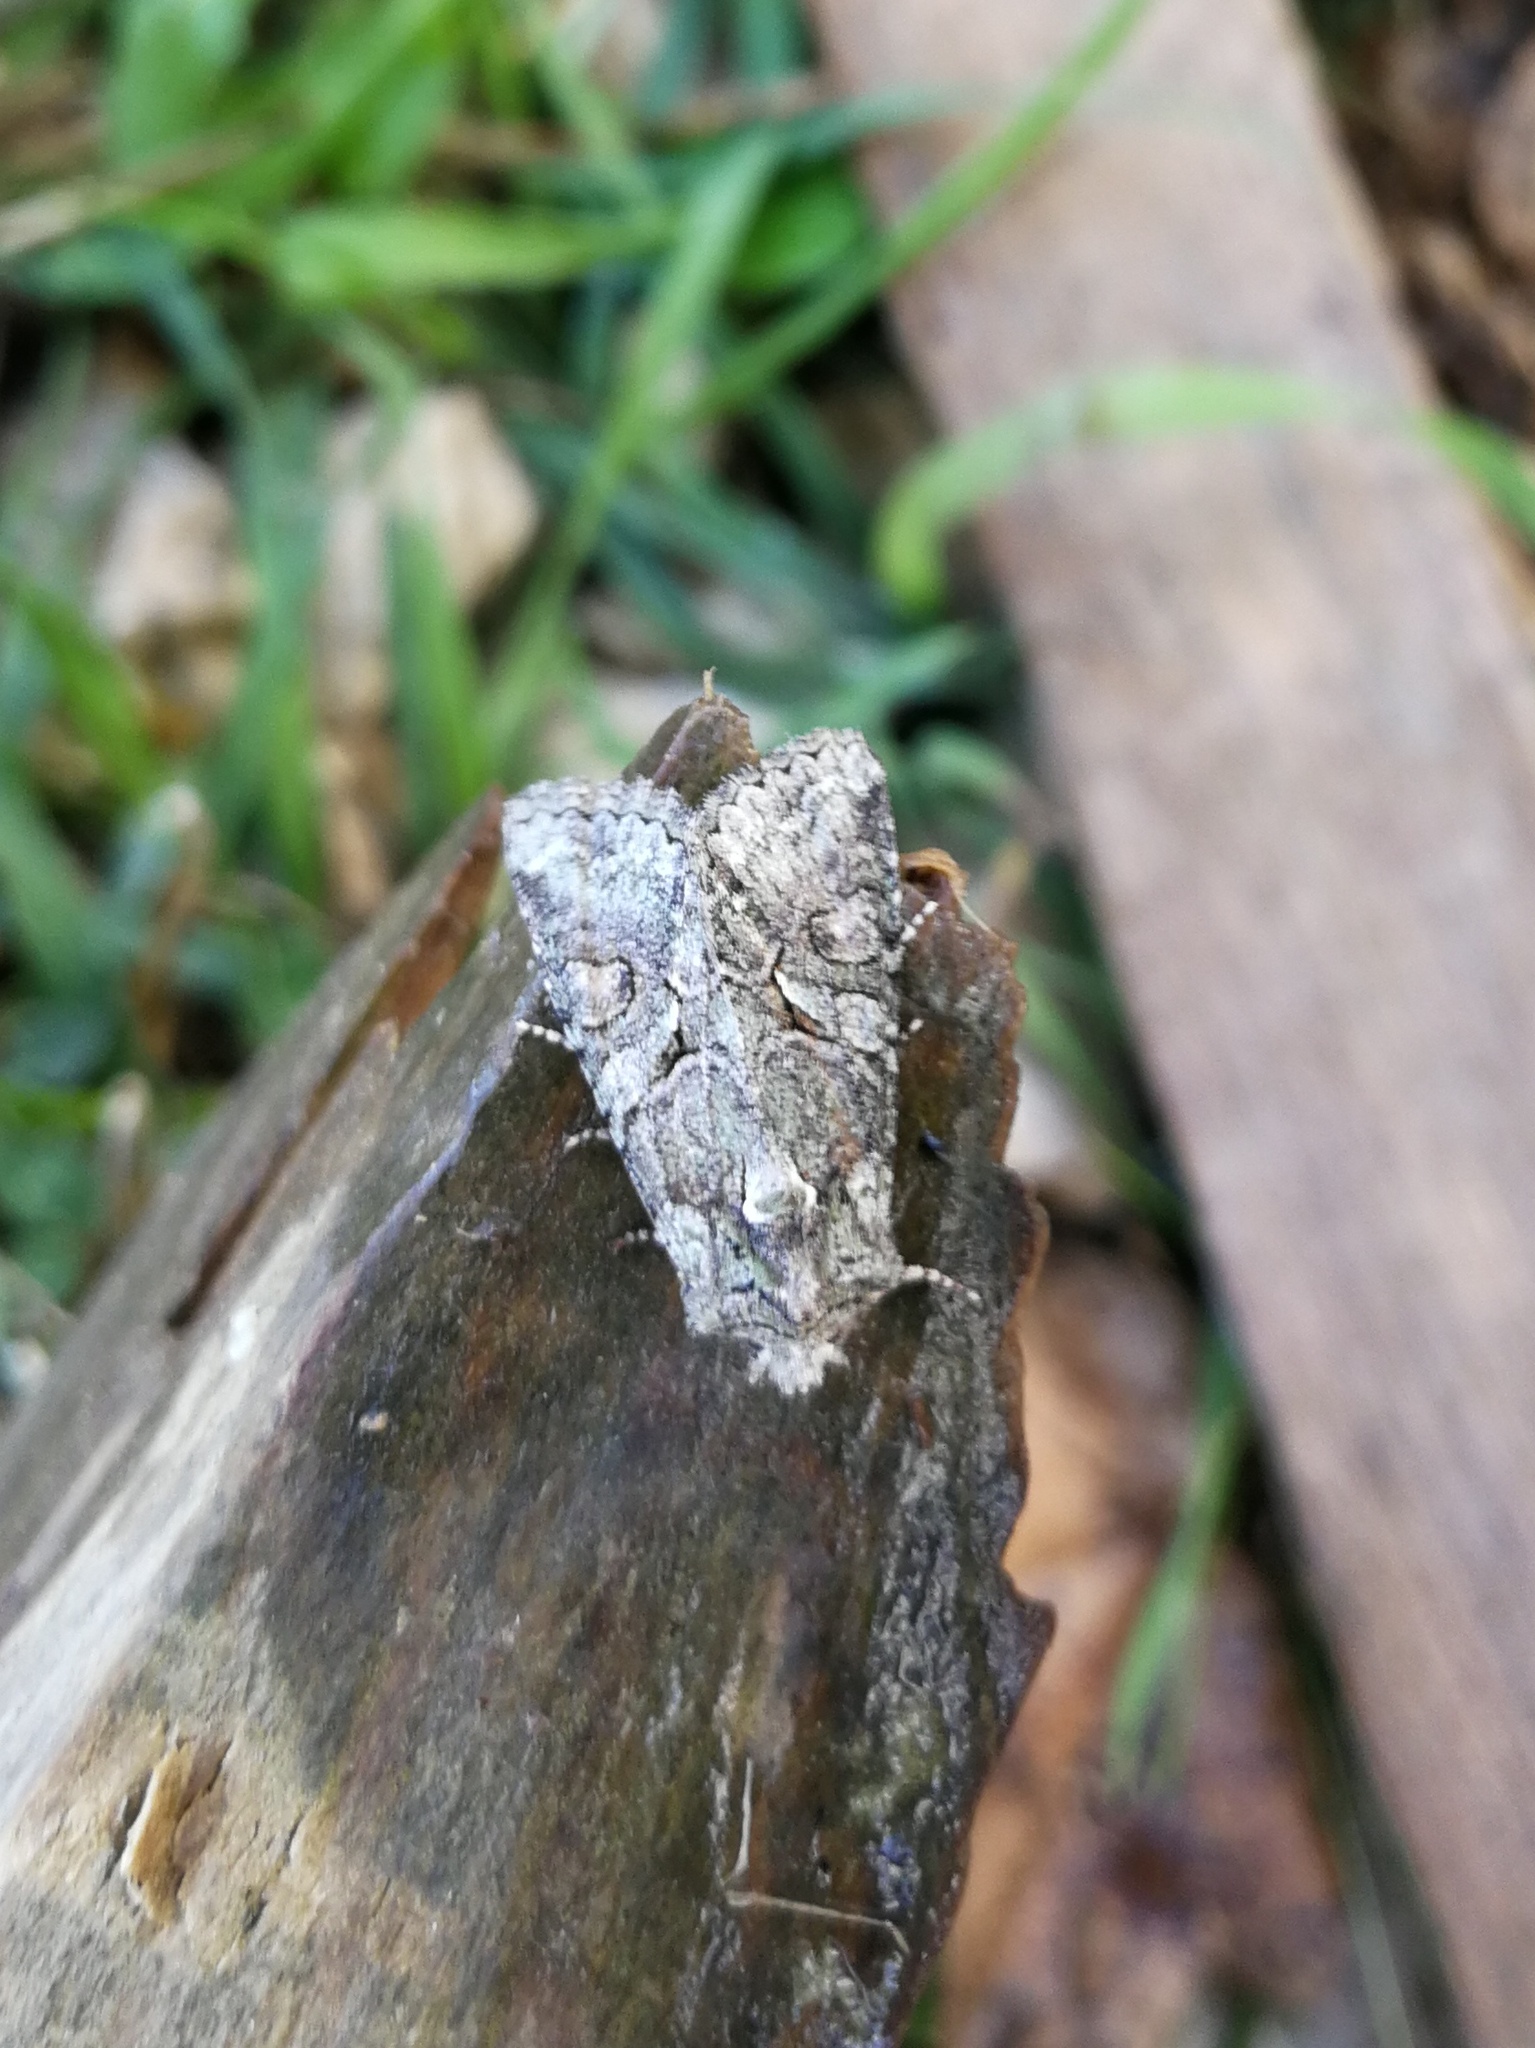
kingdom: Animalia
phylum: Arthropoda
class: Insecta
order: Lepidoptera
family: Noctuidae
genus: Dryobotodes
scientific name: Dryobotodes roboris
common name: Southern brindled green
